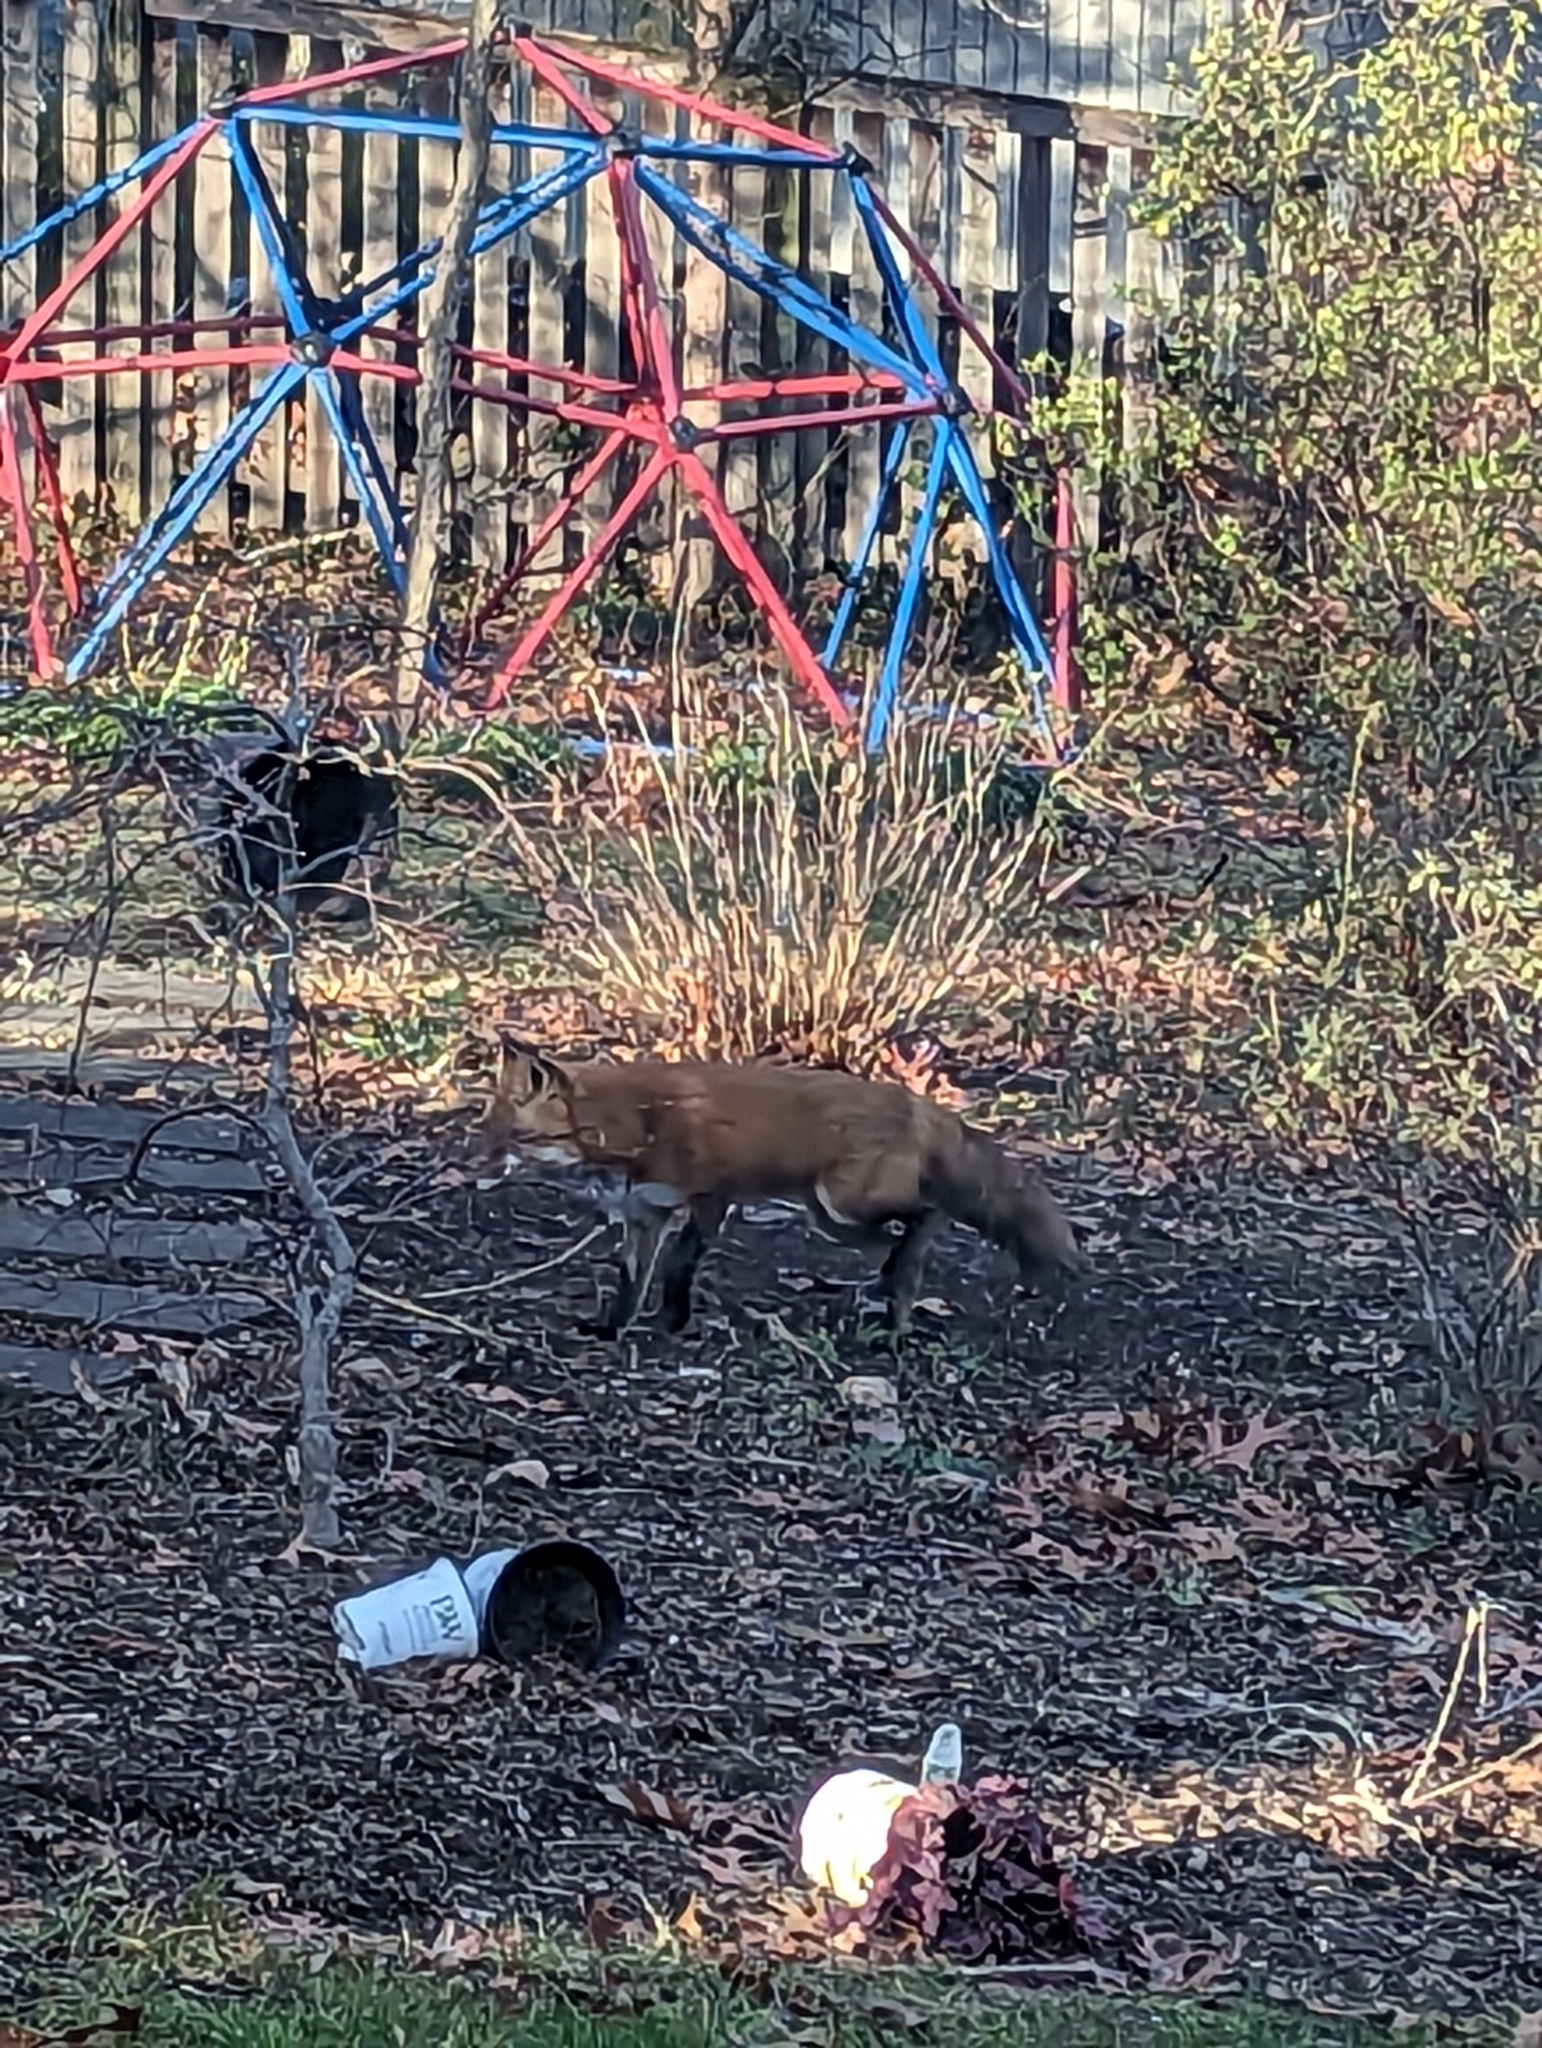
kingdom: Animalia
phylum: Chordata
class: Mammalia
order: Carnivora
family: Canidae
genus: Vulpes
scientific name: Vulpes vulpes
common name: Red fox
